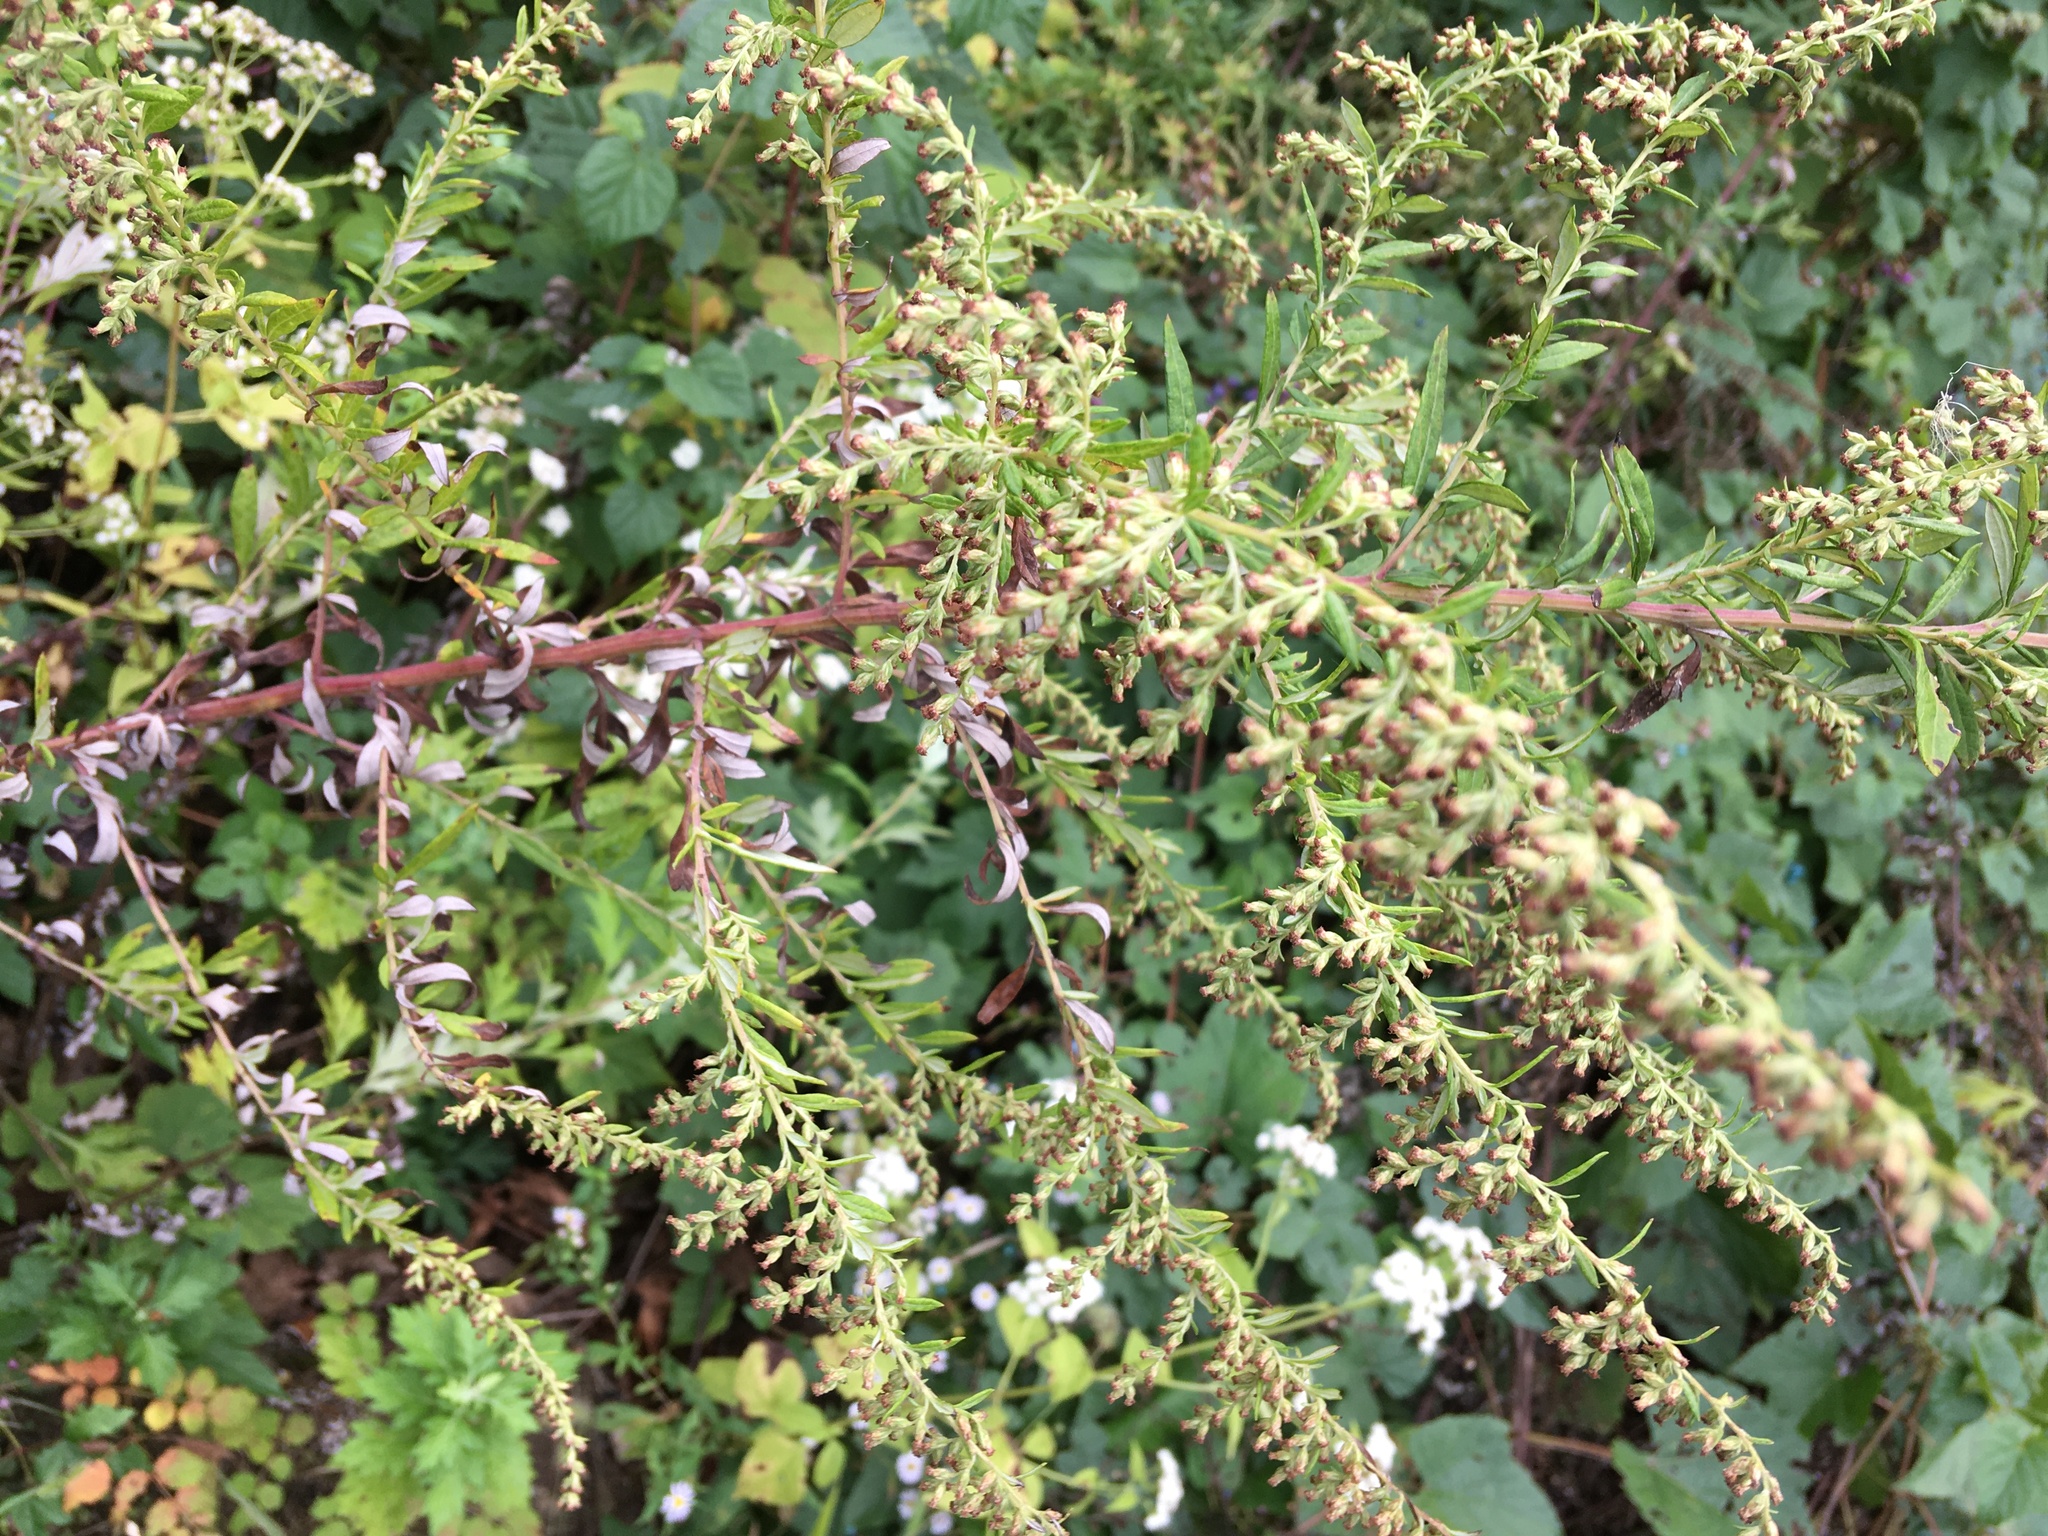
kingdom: Plantae
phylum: Tracheophyta
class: Magnoliopsida
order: Asterales
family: Asteraceae
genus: Artemisia
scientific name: Artemisia vulgaris
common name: Mugwort
